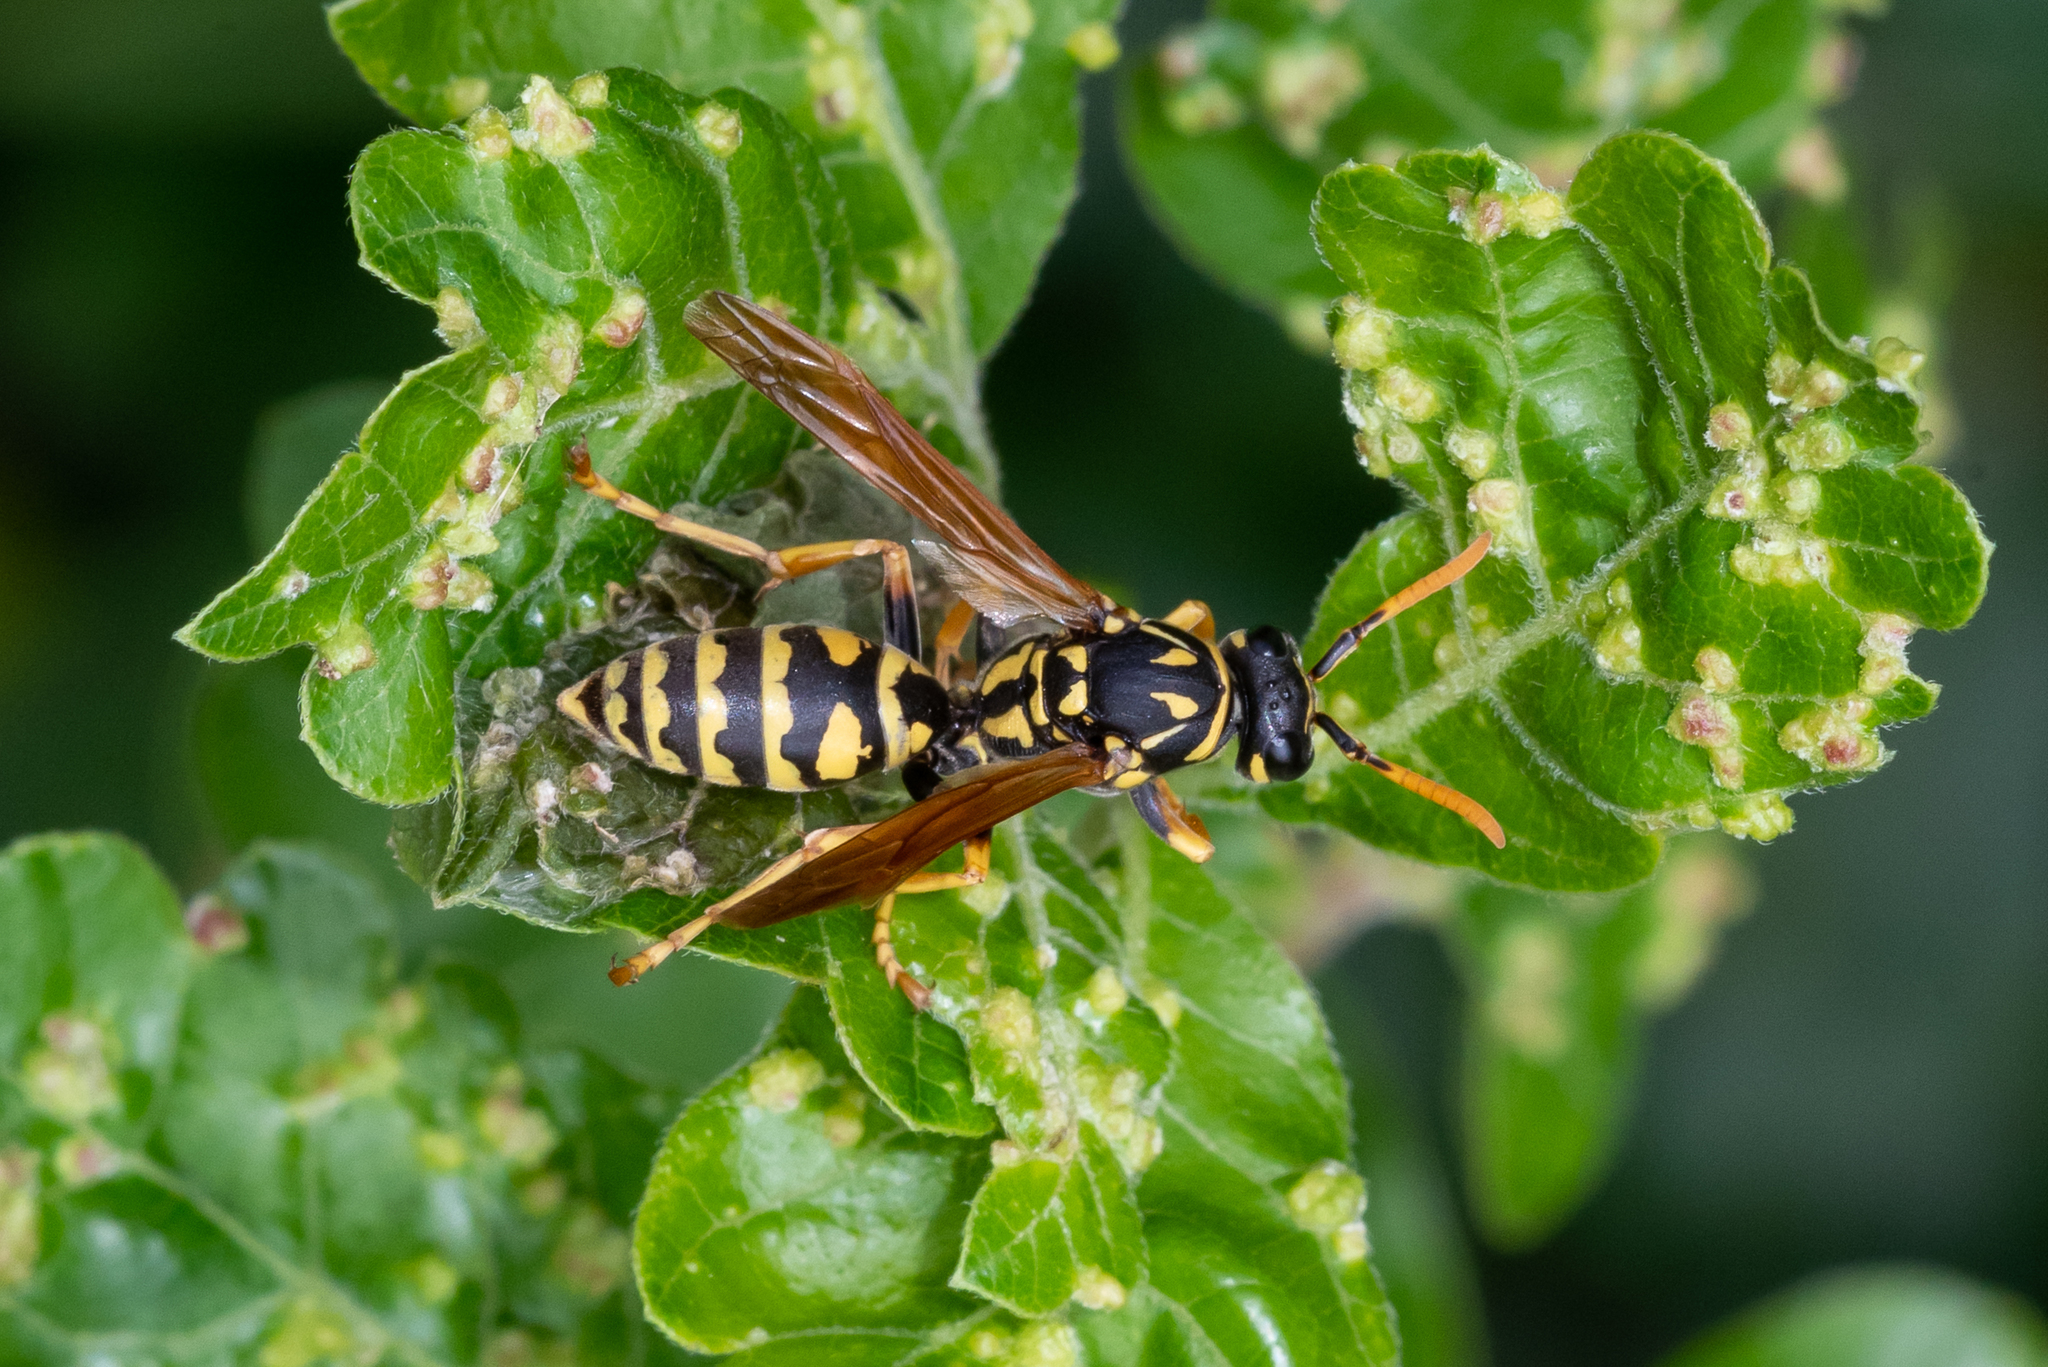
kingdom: Animalia
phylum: Arthropoda
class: Insecta
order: Hymenoptera
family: Eumenidae
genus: Polistes
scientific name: Polistes dominula
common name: Paper wasp
